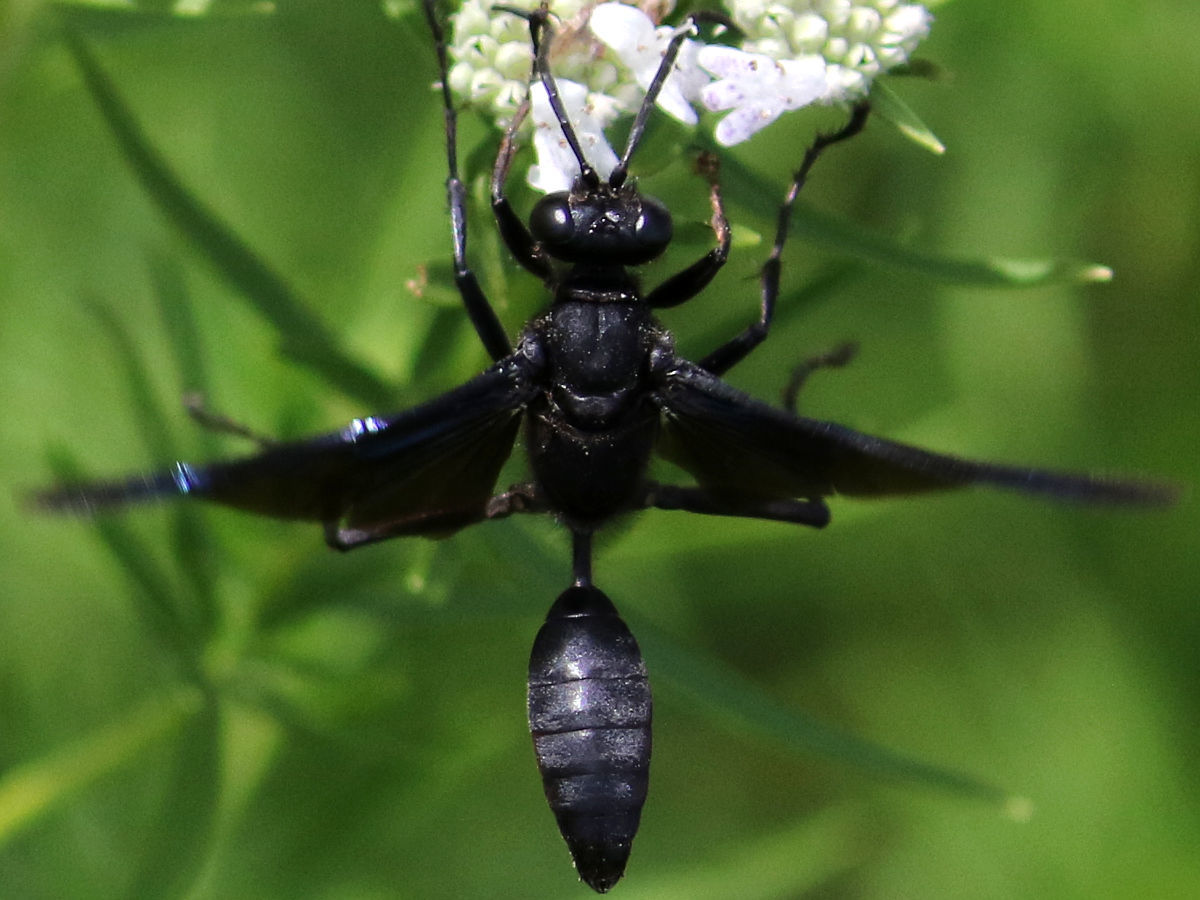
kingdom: Animalia
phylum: Arthropoda
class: Insecta
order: Hymenoptera
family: Sphecidae
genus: Sphex
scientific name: Sphex pensylvanicus
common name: Great black digger wasp
